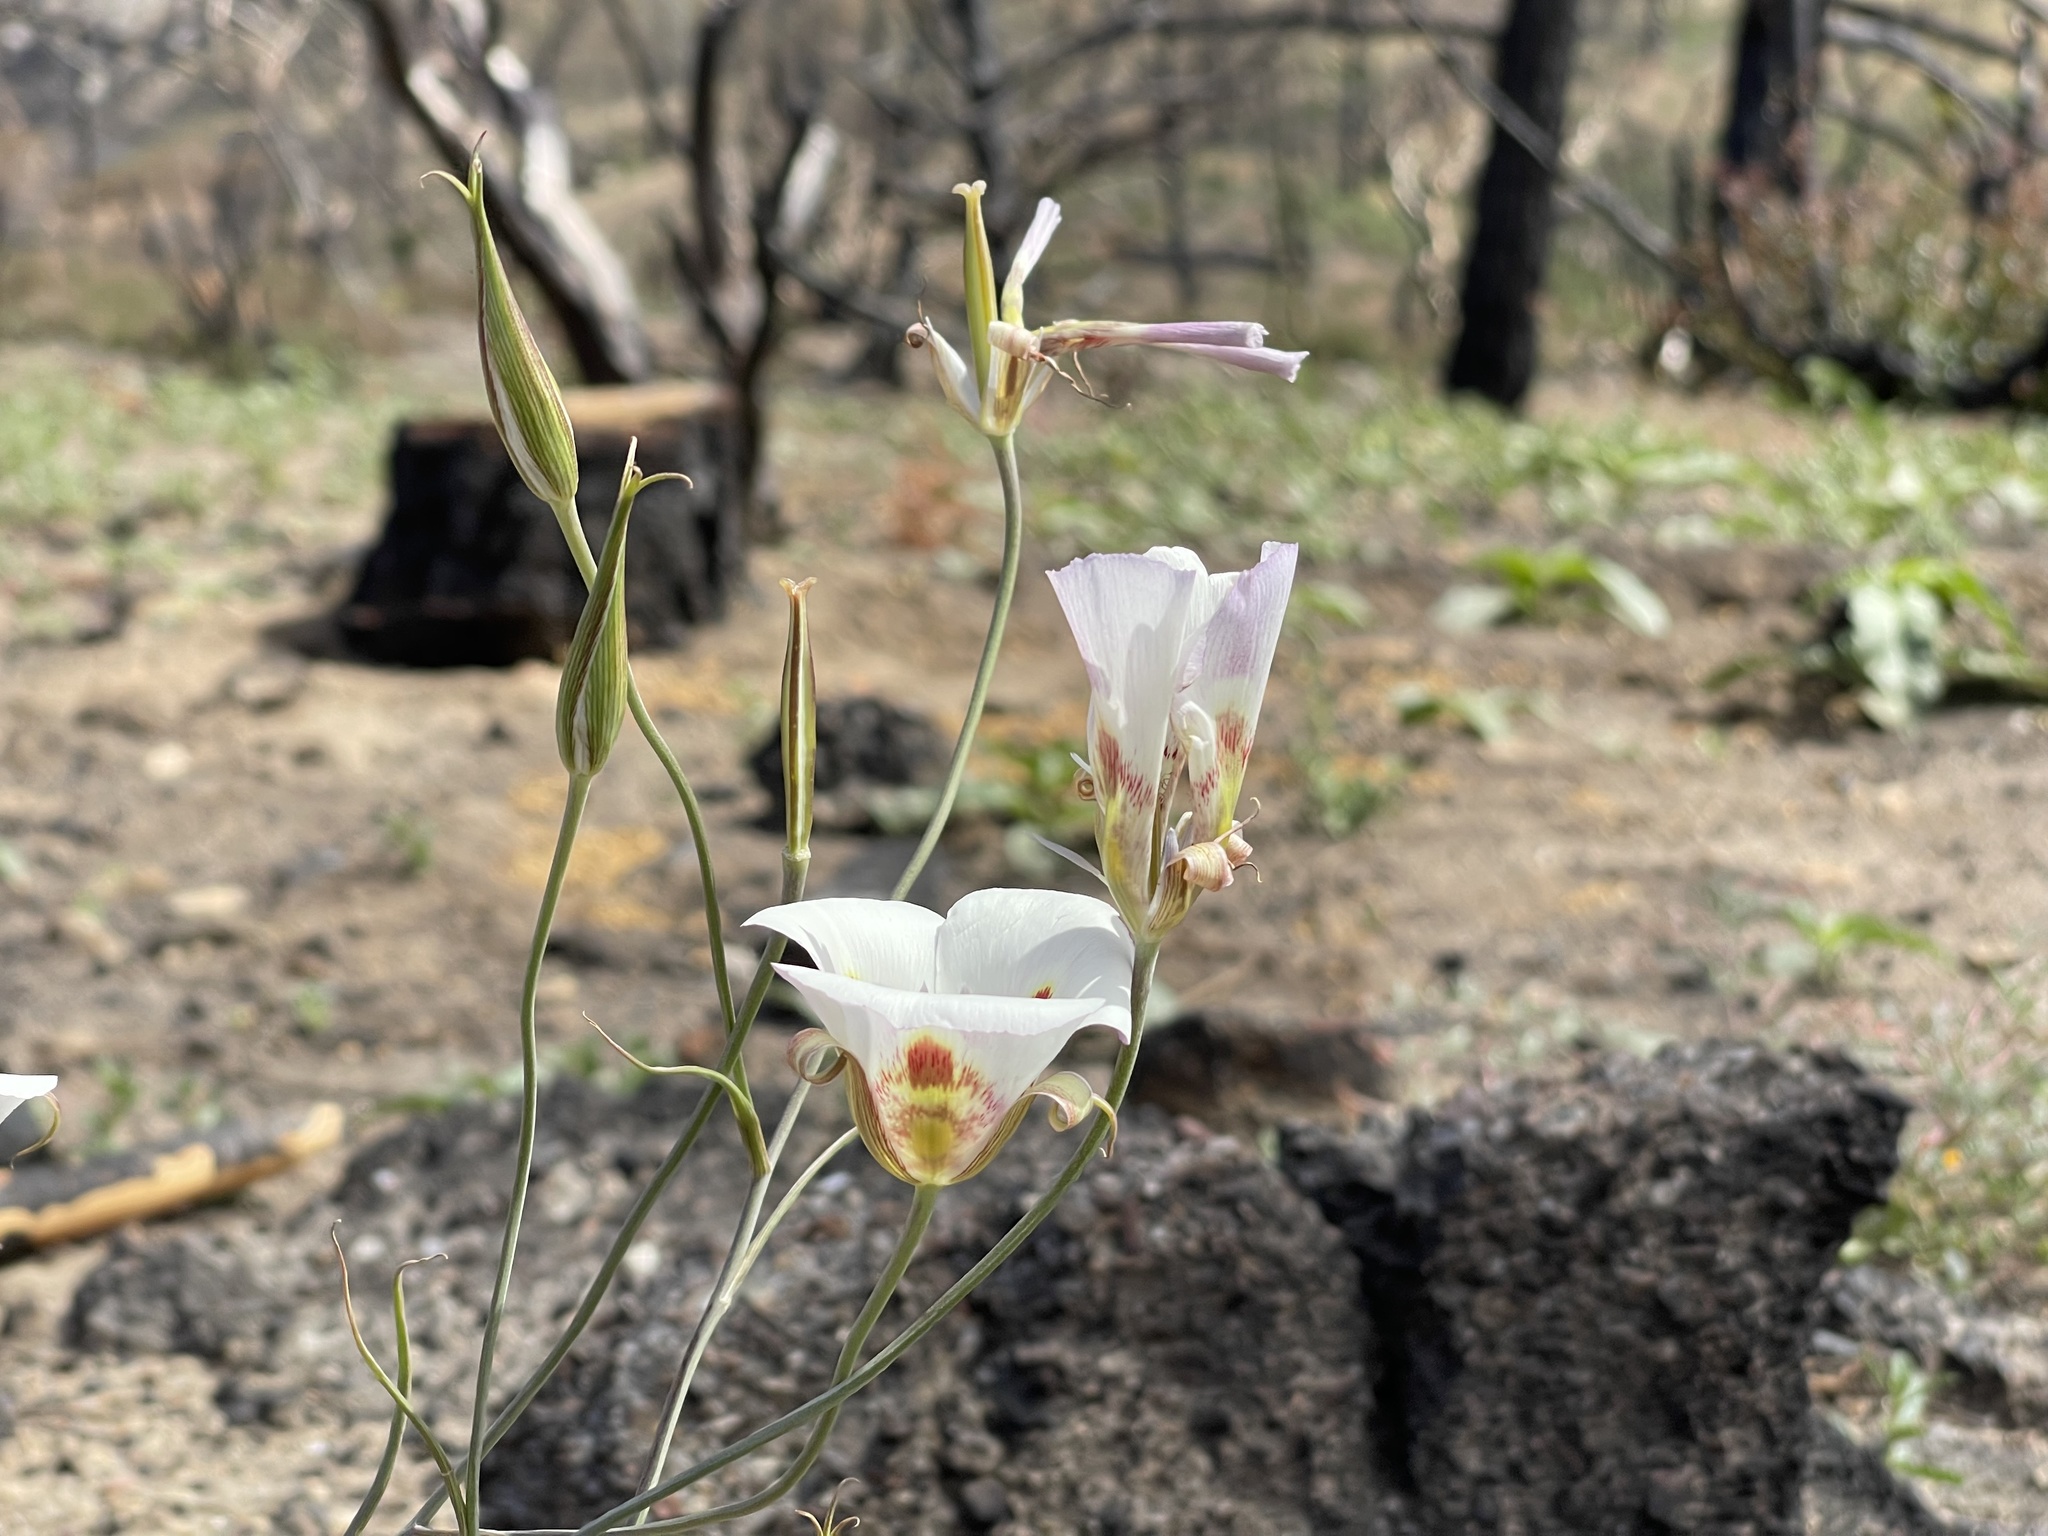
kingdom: Plantae
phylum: Tracheophyta
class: Liliopsida
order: Liliales
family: Liliaceae
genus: Calochortus
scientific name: Calochortus venustus
